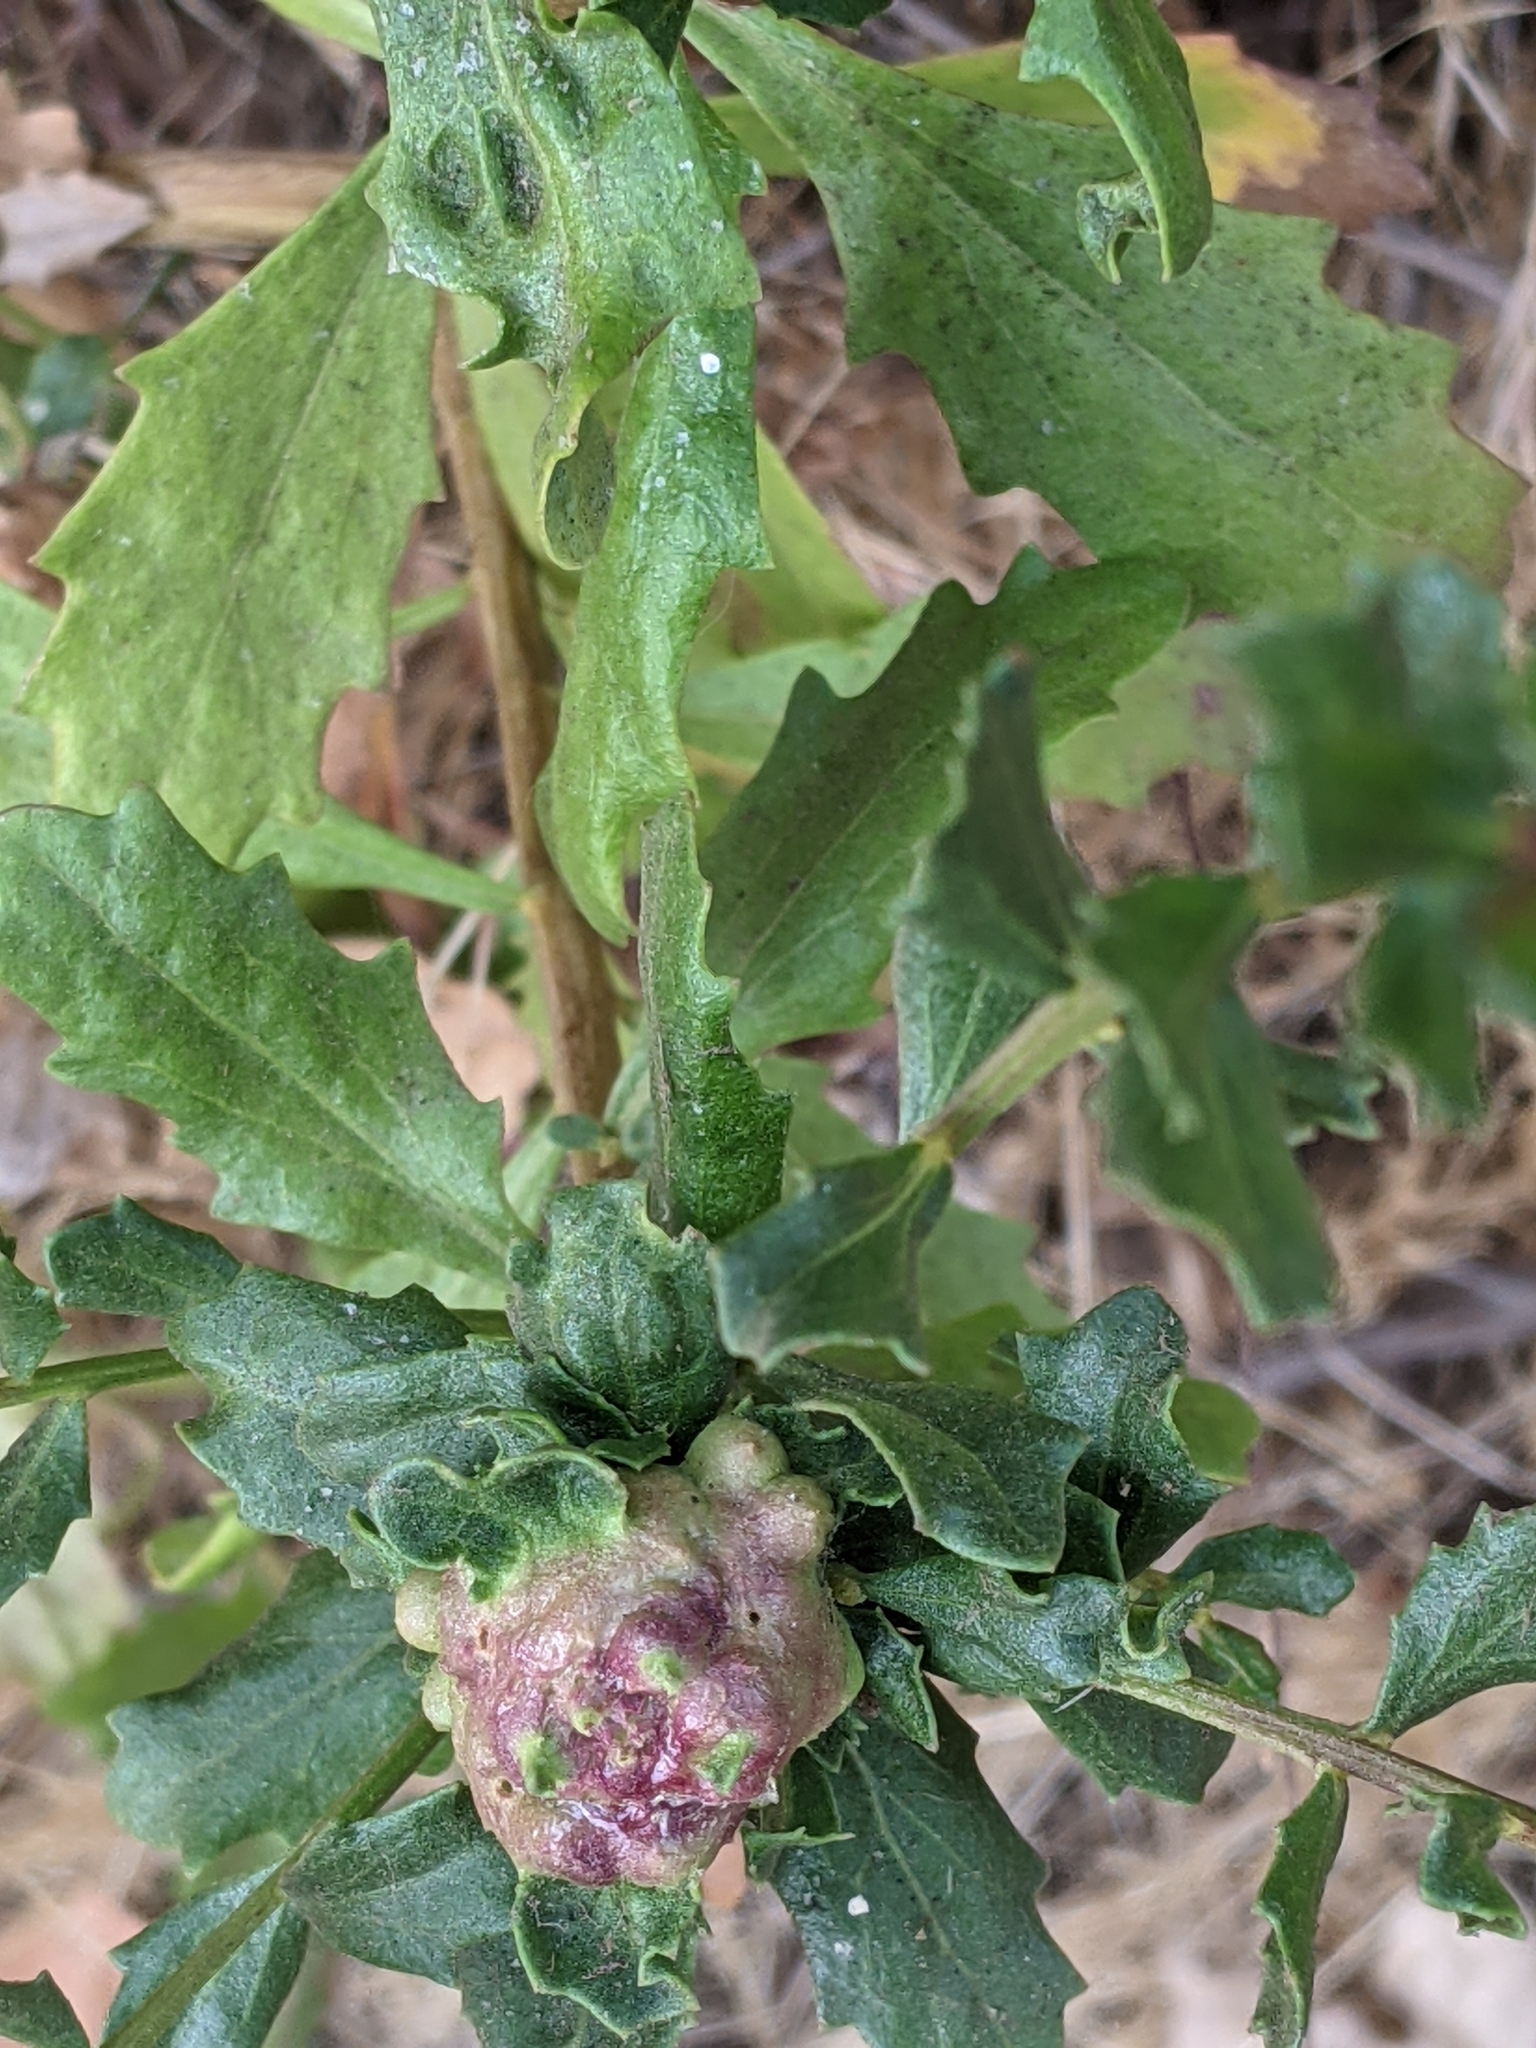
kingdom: Animalia
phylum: Arthropoda
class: Insecta
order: Diptera
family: Cecidomyiidae
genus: Rhopalomyia
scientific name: Rhopalomyia californica
